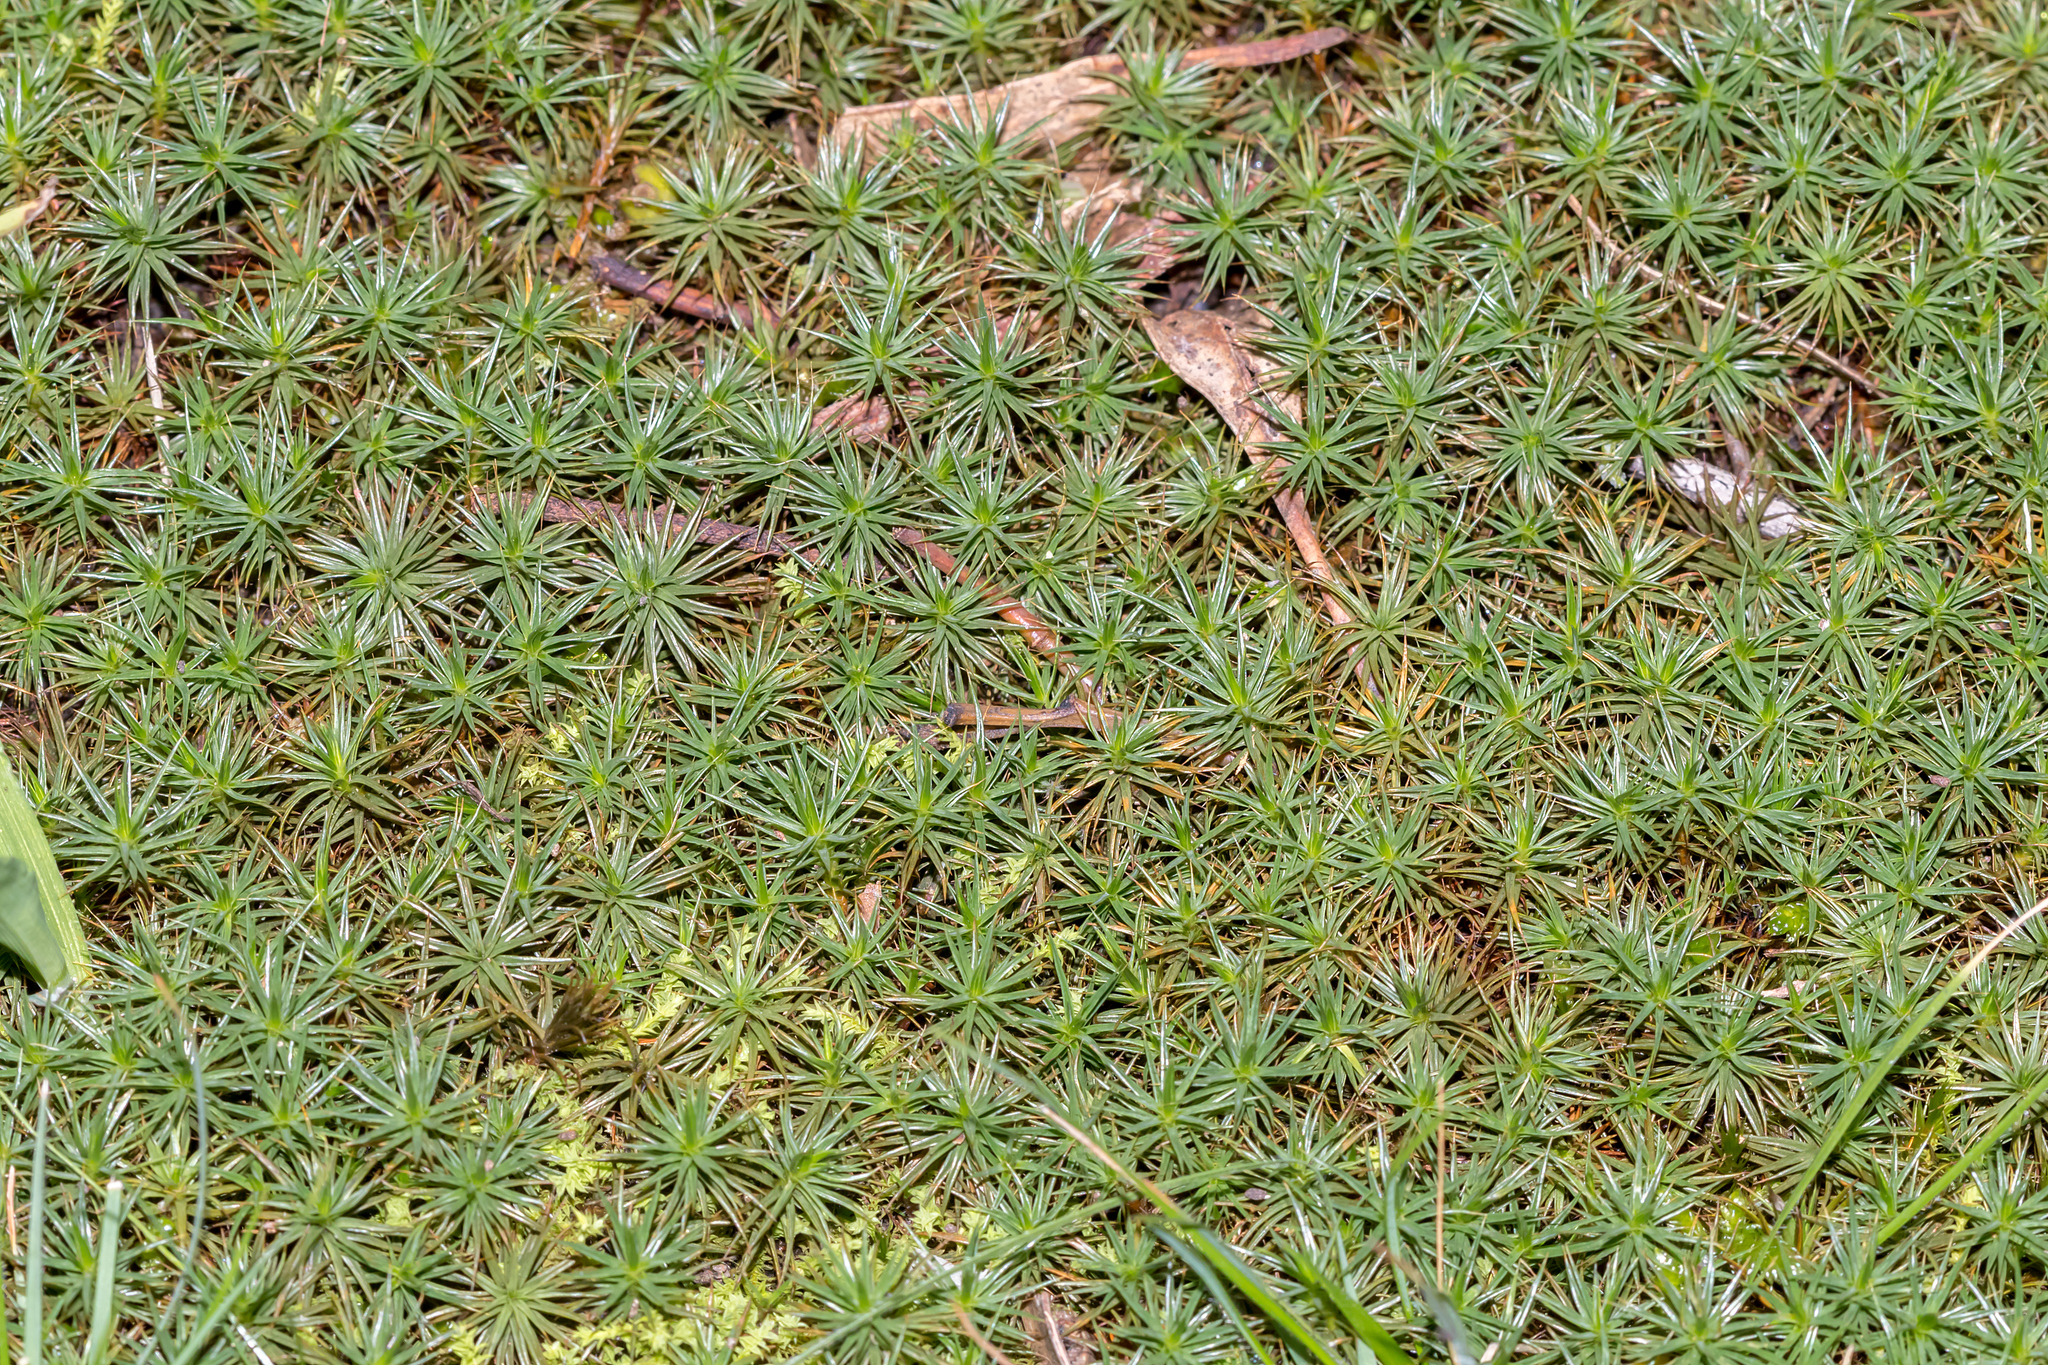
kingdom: Plantae
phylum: Bryophyta
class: Polytrichopsida
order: Polytrichales
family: Polytrichaceae
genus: Polytrichum
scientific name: Polytrichum juniperinum
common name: Juniper haircap moss
